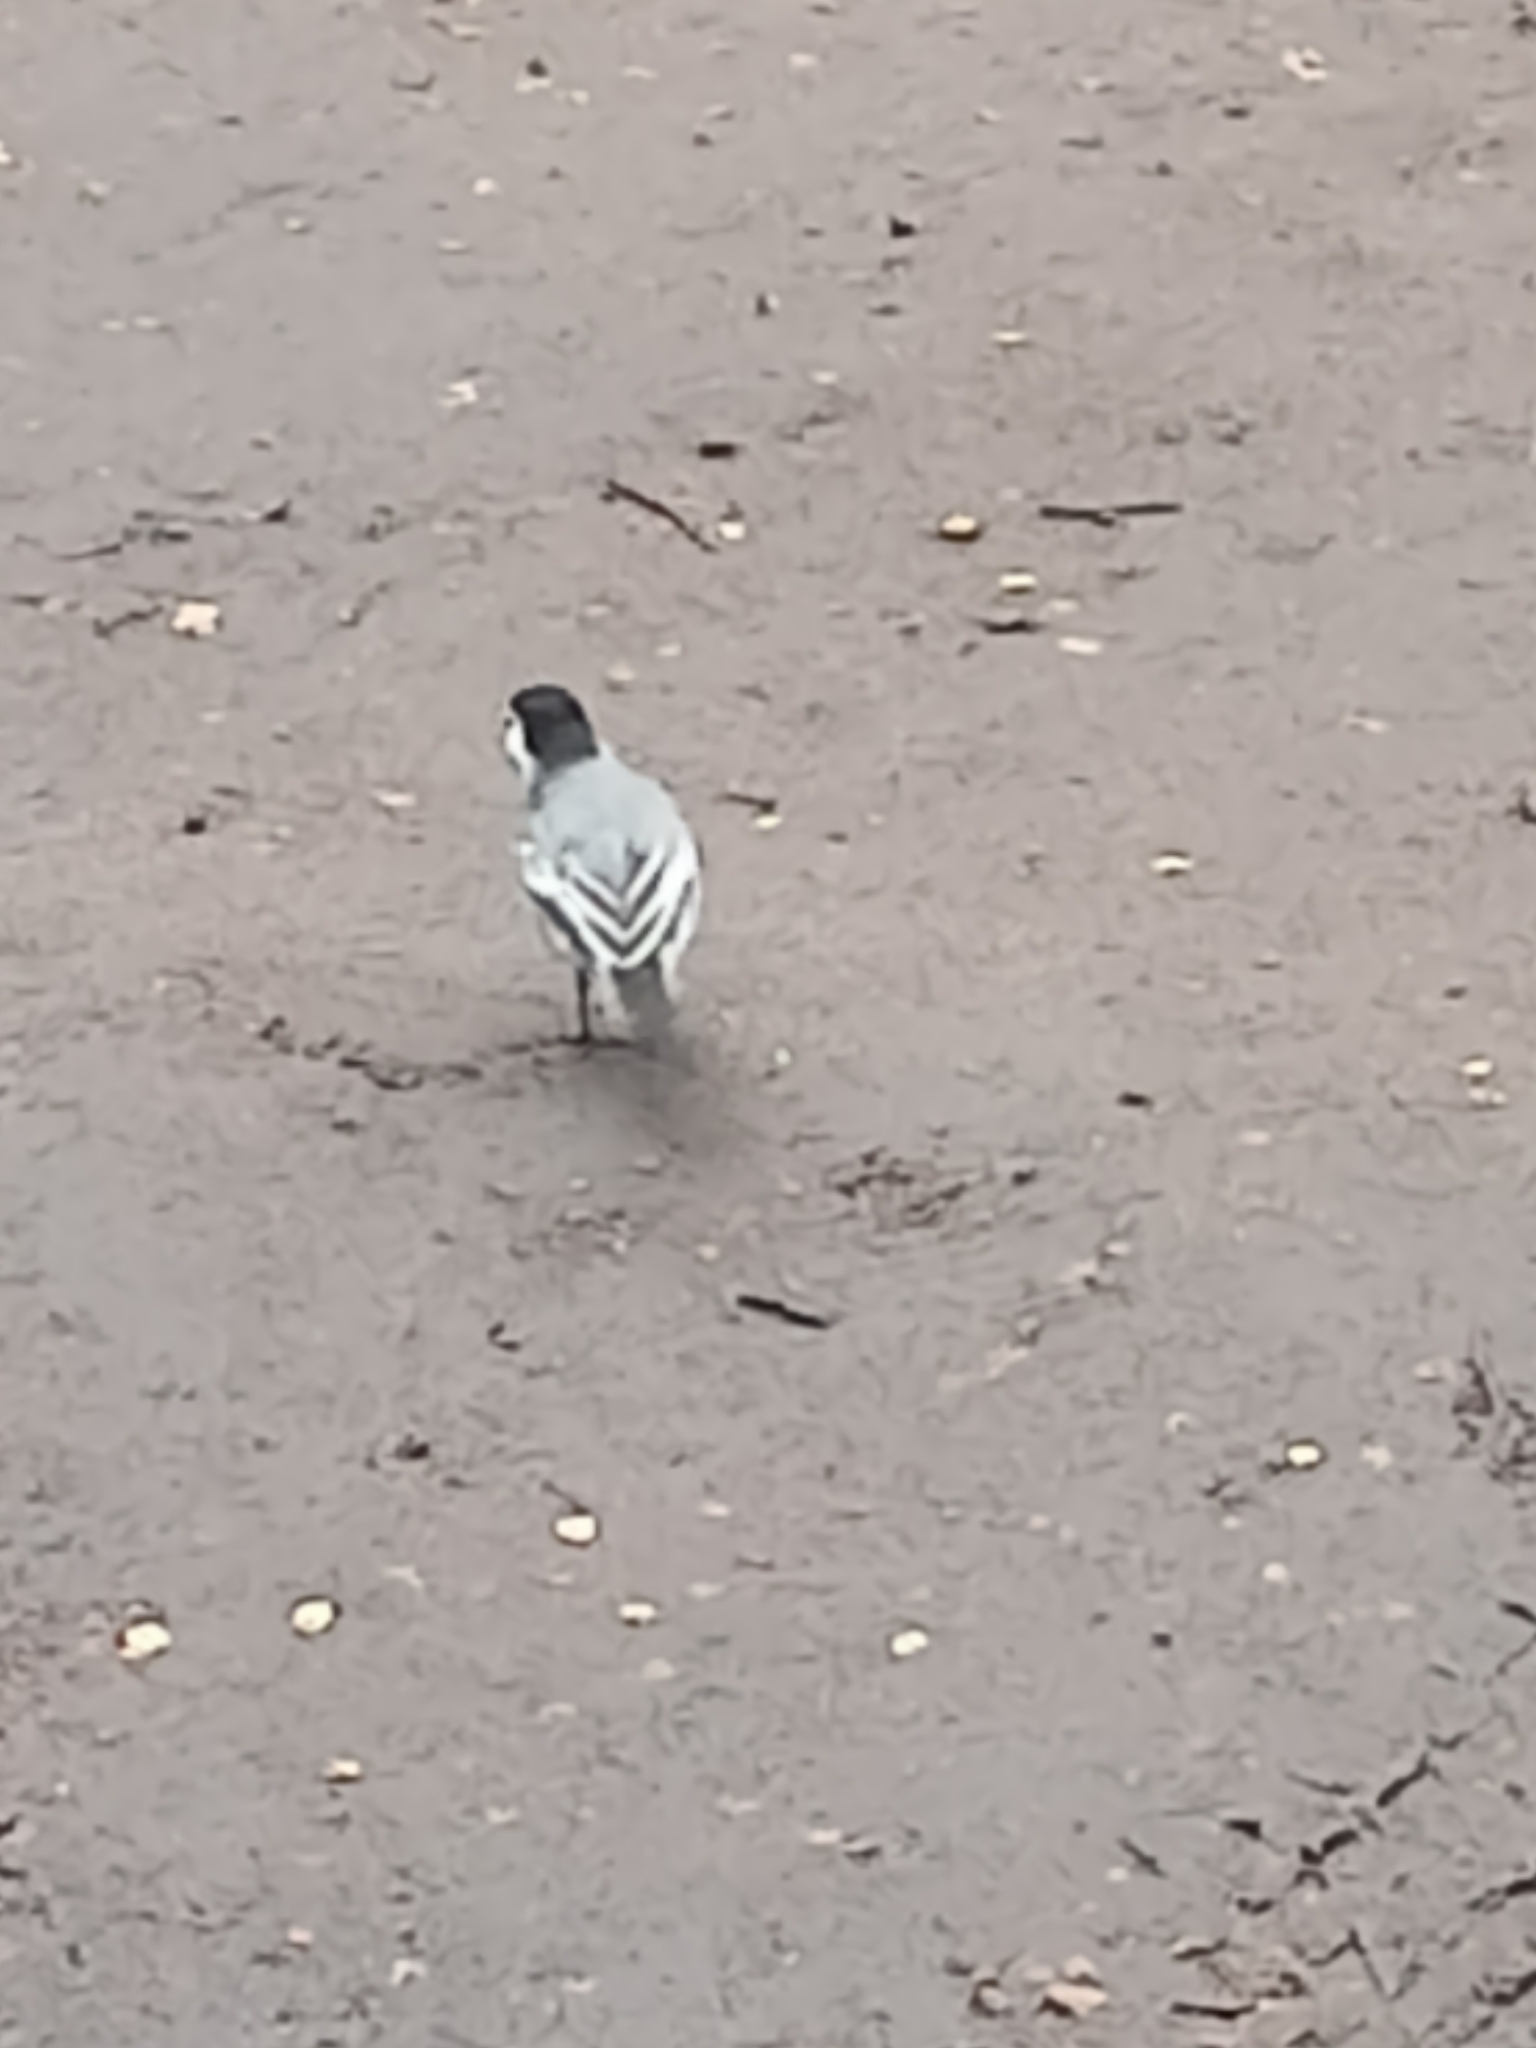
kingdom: Animalia
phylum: Chordata
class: Aves
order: Passeriformes
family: Motacillidae
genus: Motacilla
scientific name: Motacilla alba
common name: White wagtail
